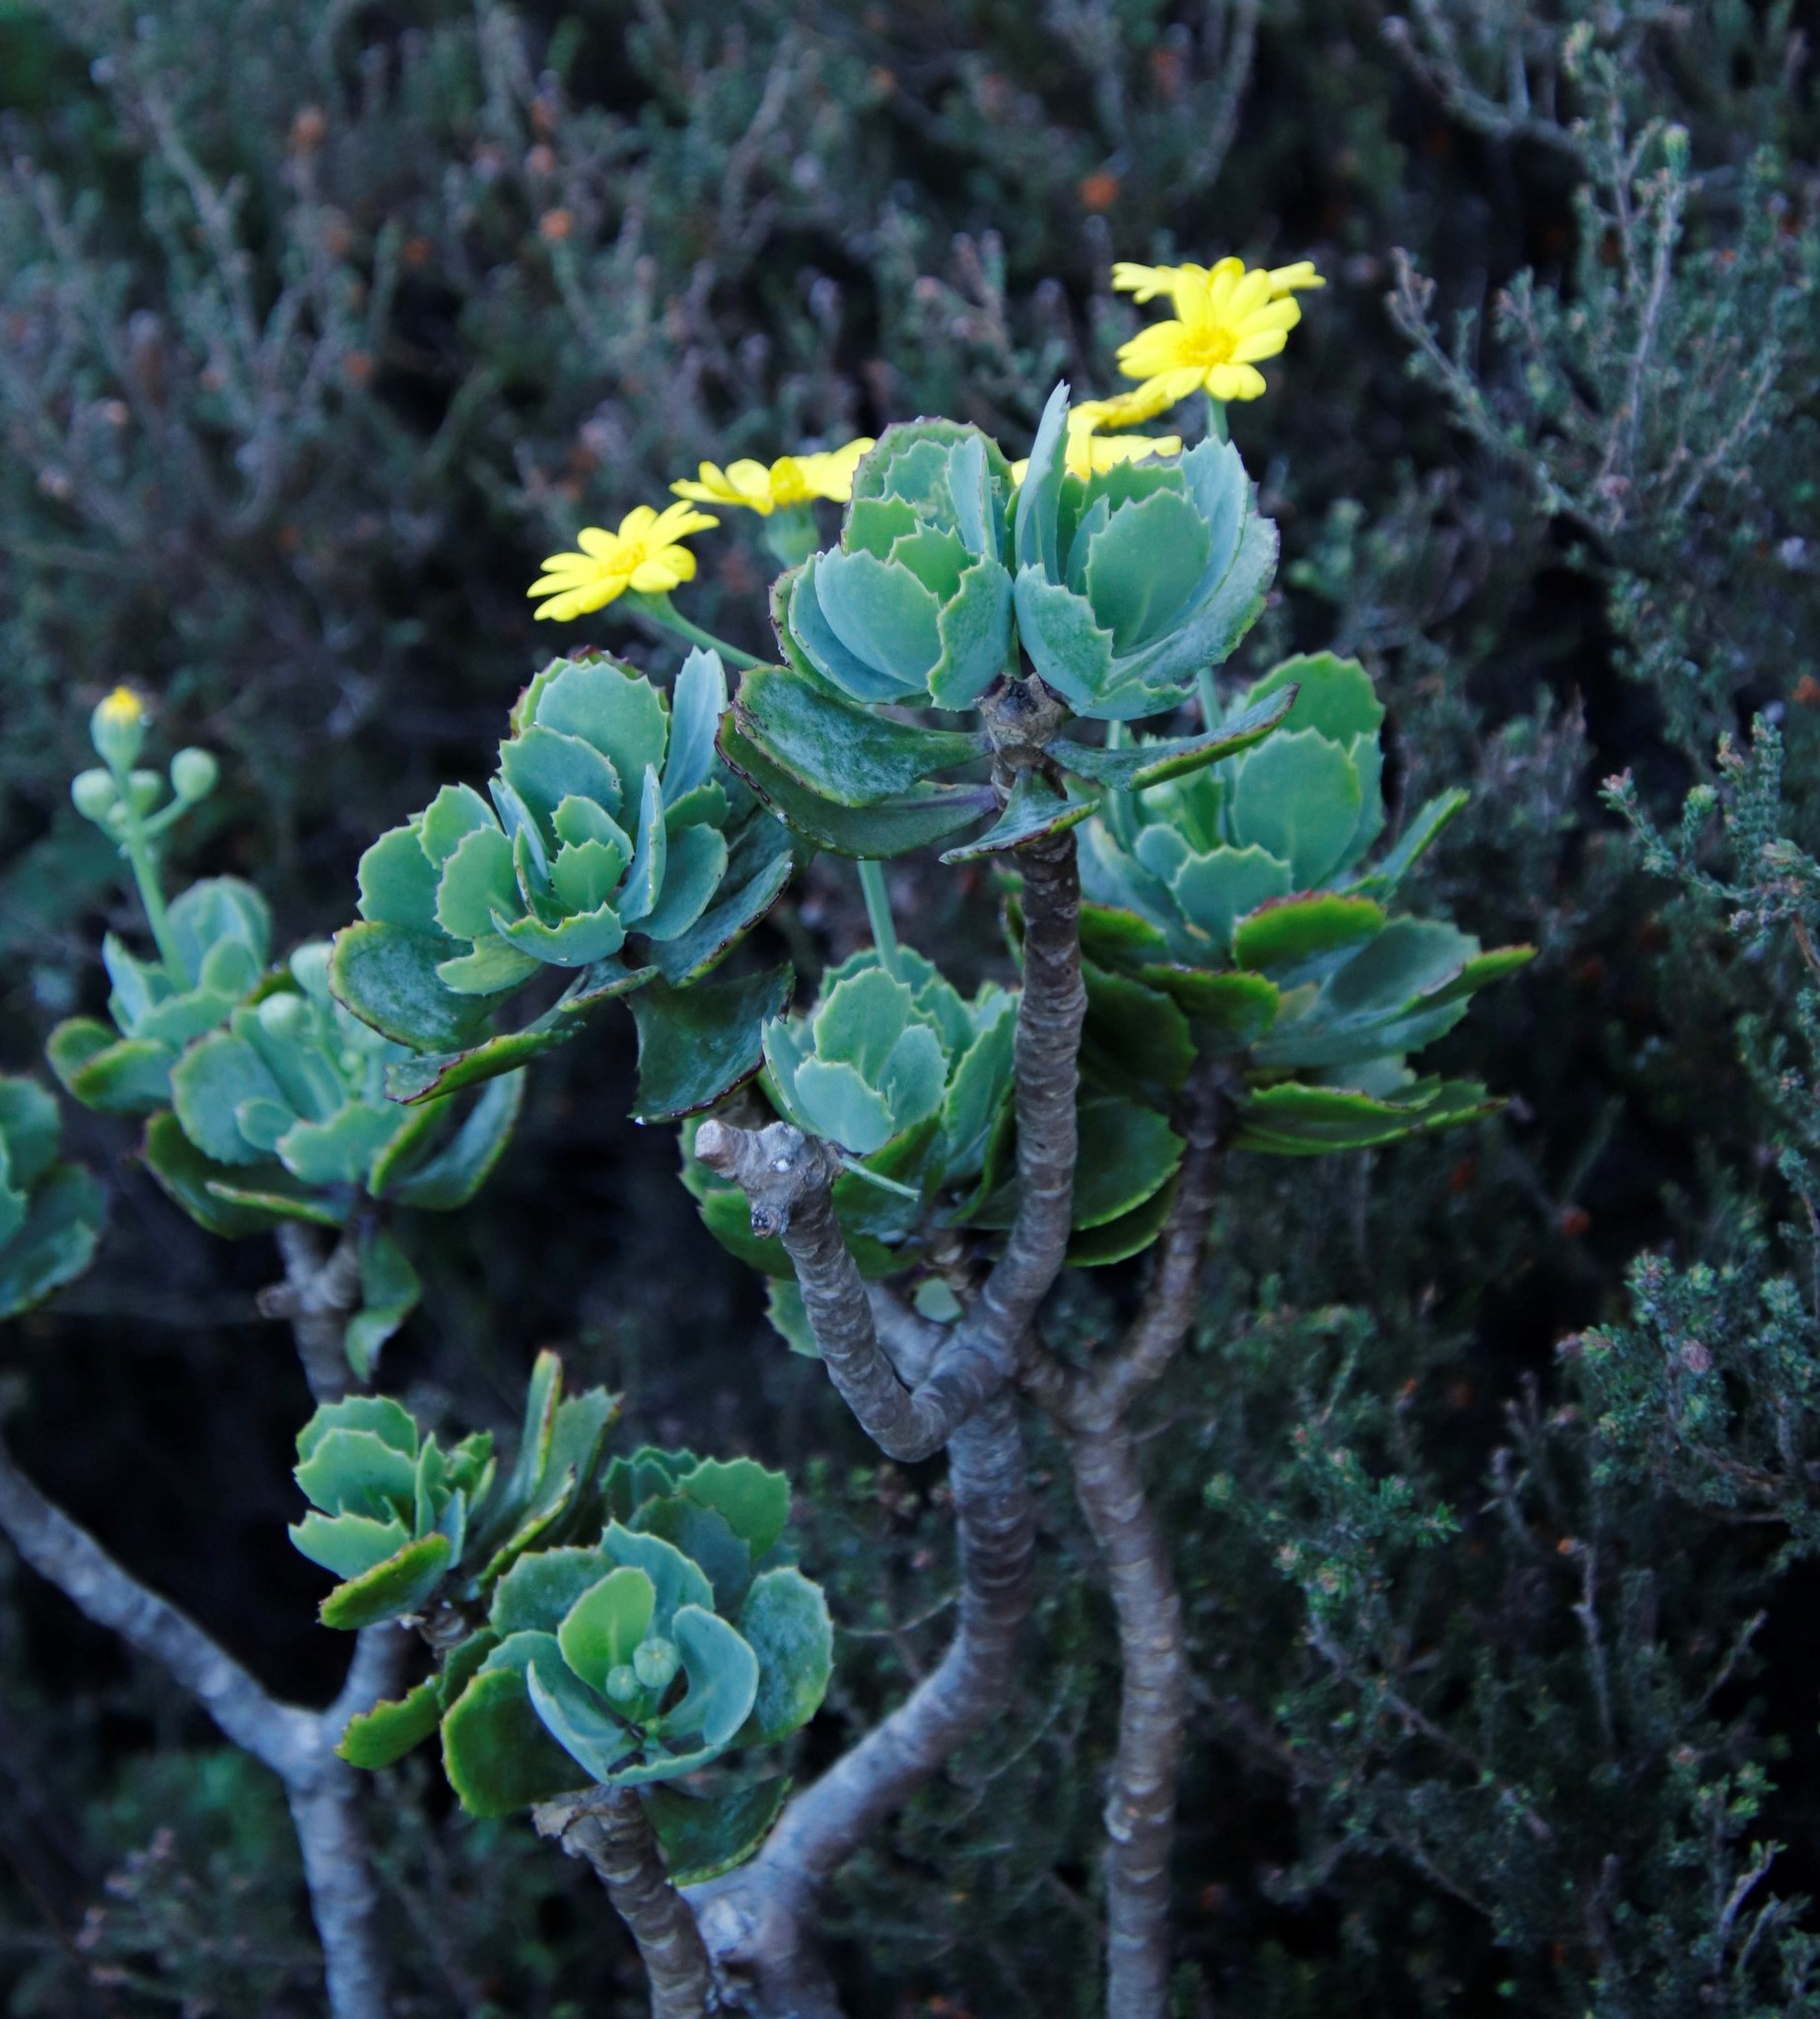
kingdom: Plantae
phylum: Tracheophyta
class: Magnoliopsida
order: Asterales
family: Asteraceae
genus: Othonna
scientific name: Othonna dentata
